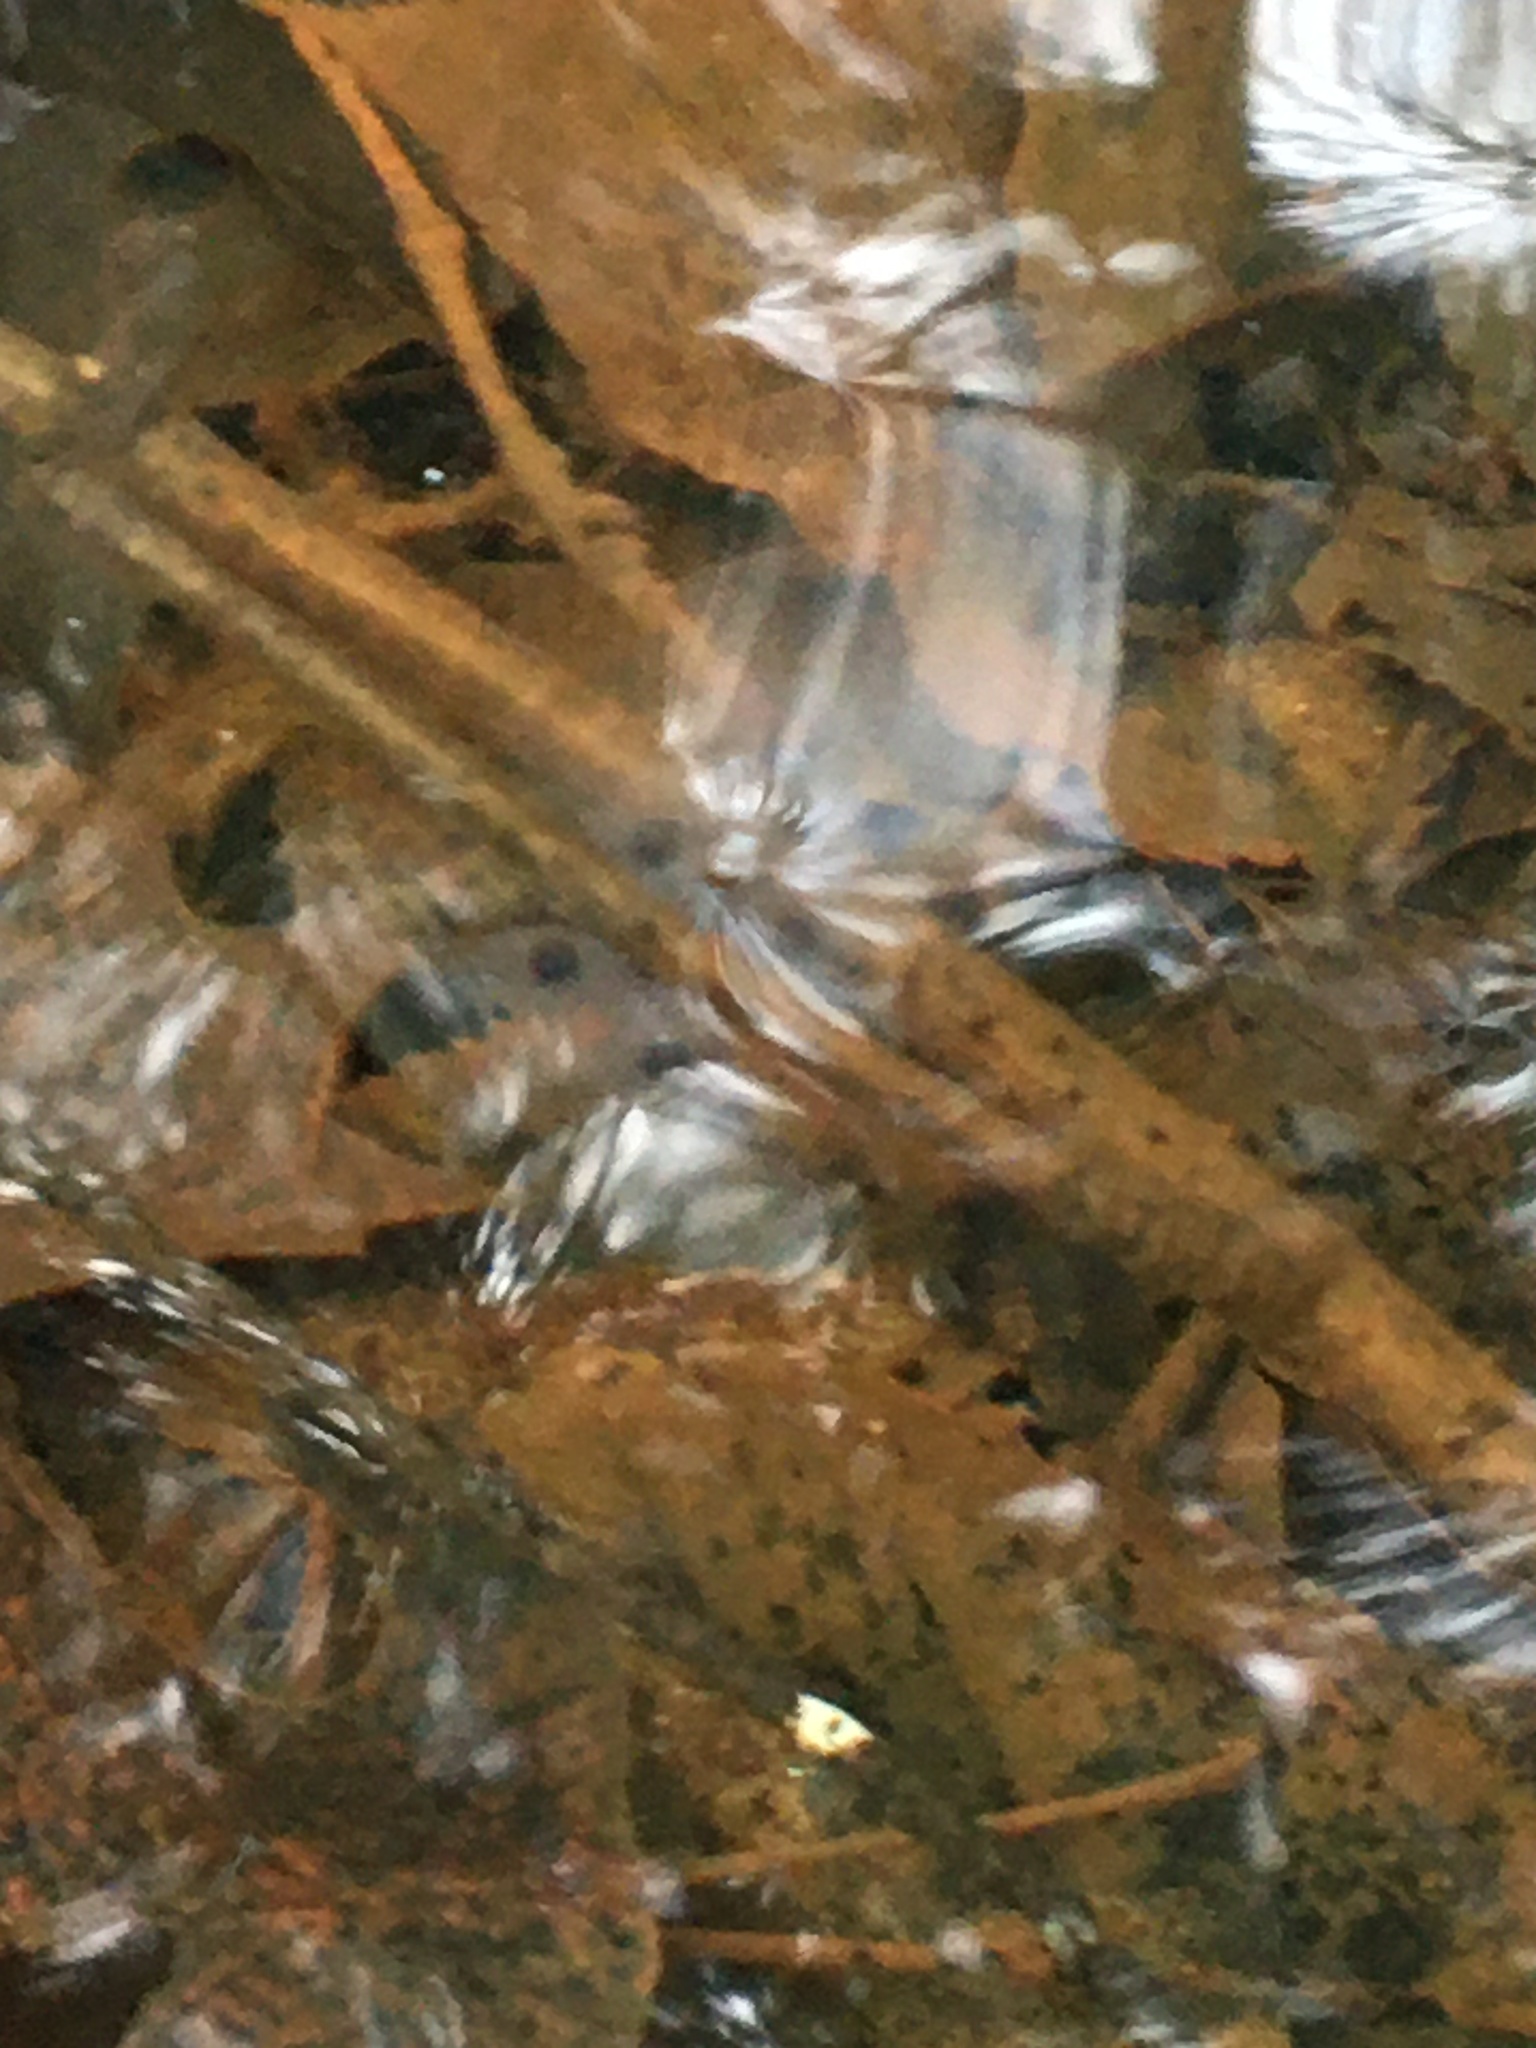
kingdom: Animalia
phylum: Chordata
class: Amphibia
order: Caudata
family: Ambystomatidae
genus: Ambystoma
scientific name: Ambystoma maculatum
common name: Spotted salamander
